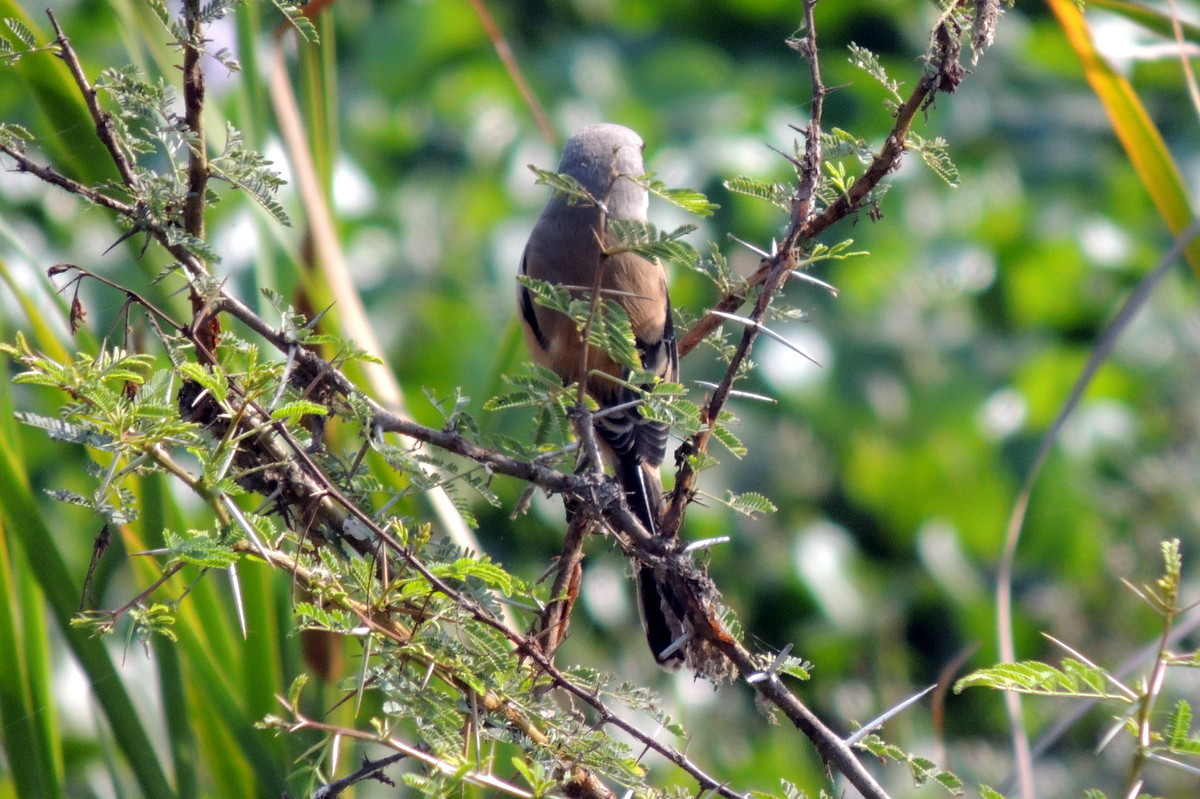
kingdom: Animalia
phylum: Chordata
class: Aves
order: Passeriformes
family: Laniidae
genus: Lanius
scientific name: Lanius schach
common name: Long-tailed shrike
